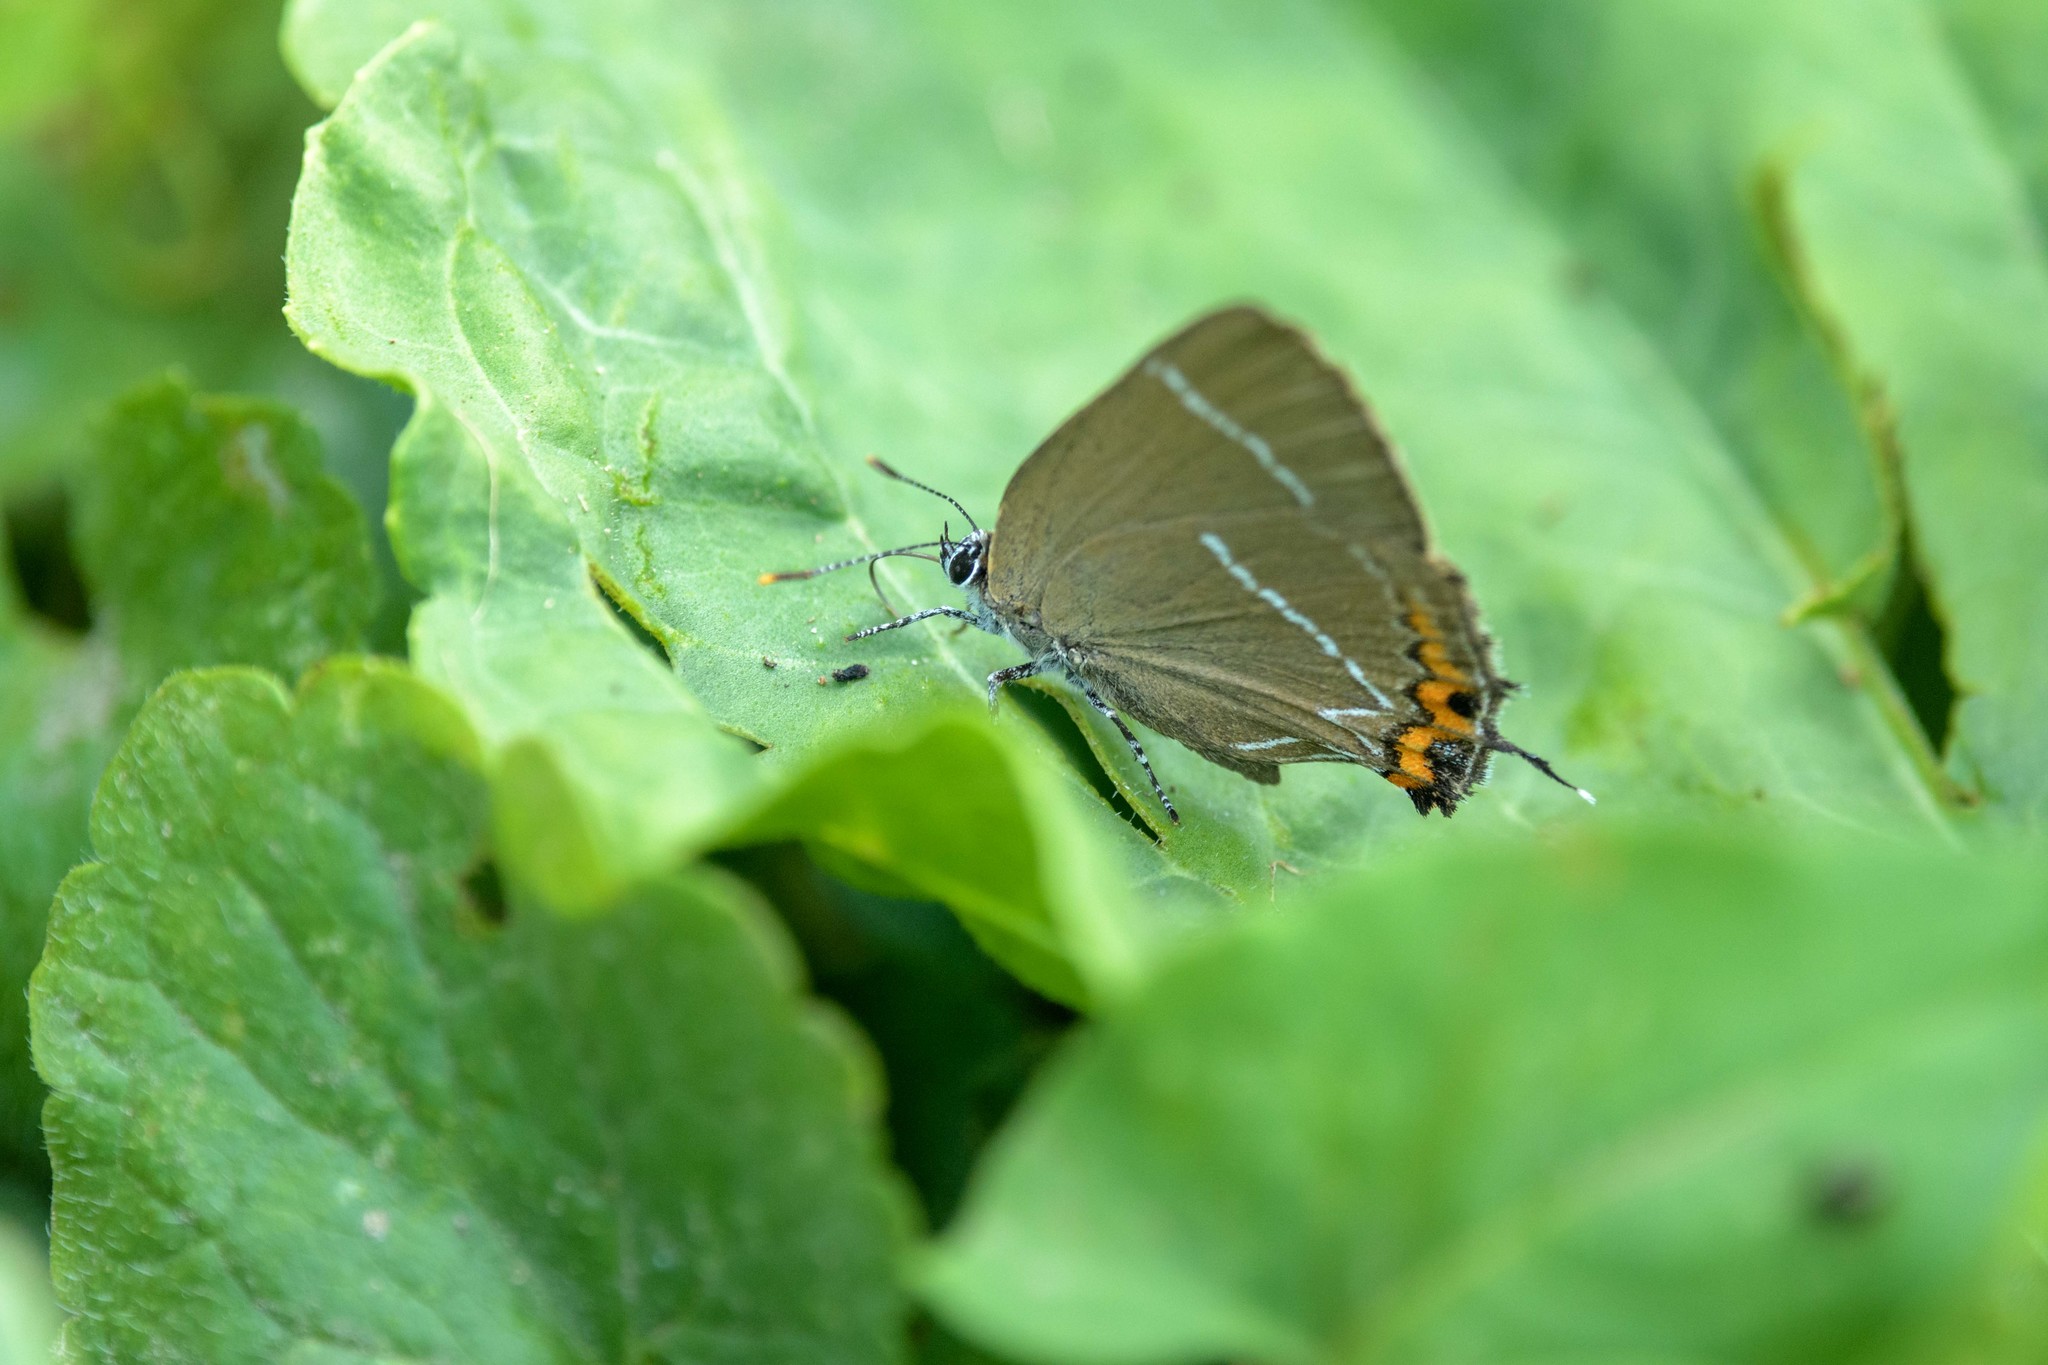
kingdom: Animalia
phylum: Arthropoda
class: Insecta
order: Lepidoptera
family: Lycaenidae
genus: Satyrium
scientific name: Satyrium w-album
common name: White-letter hairstreak
